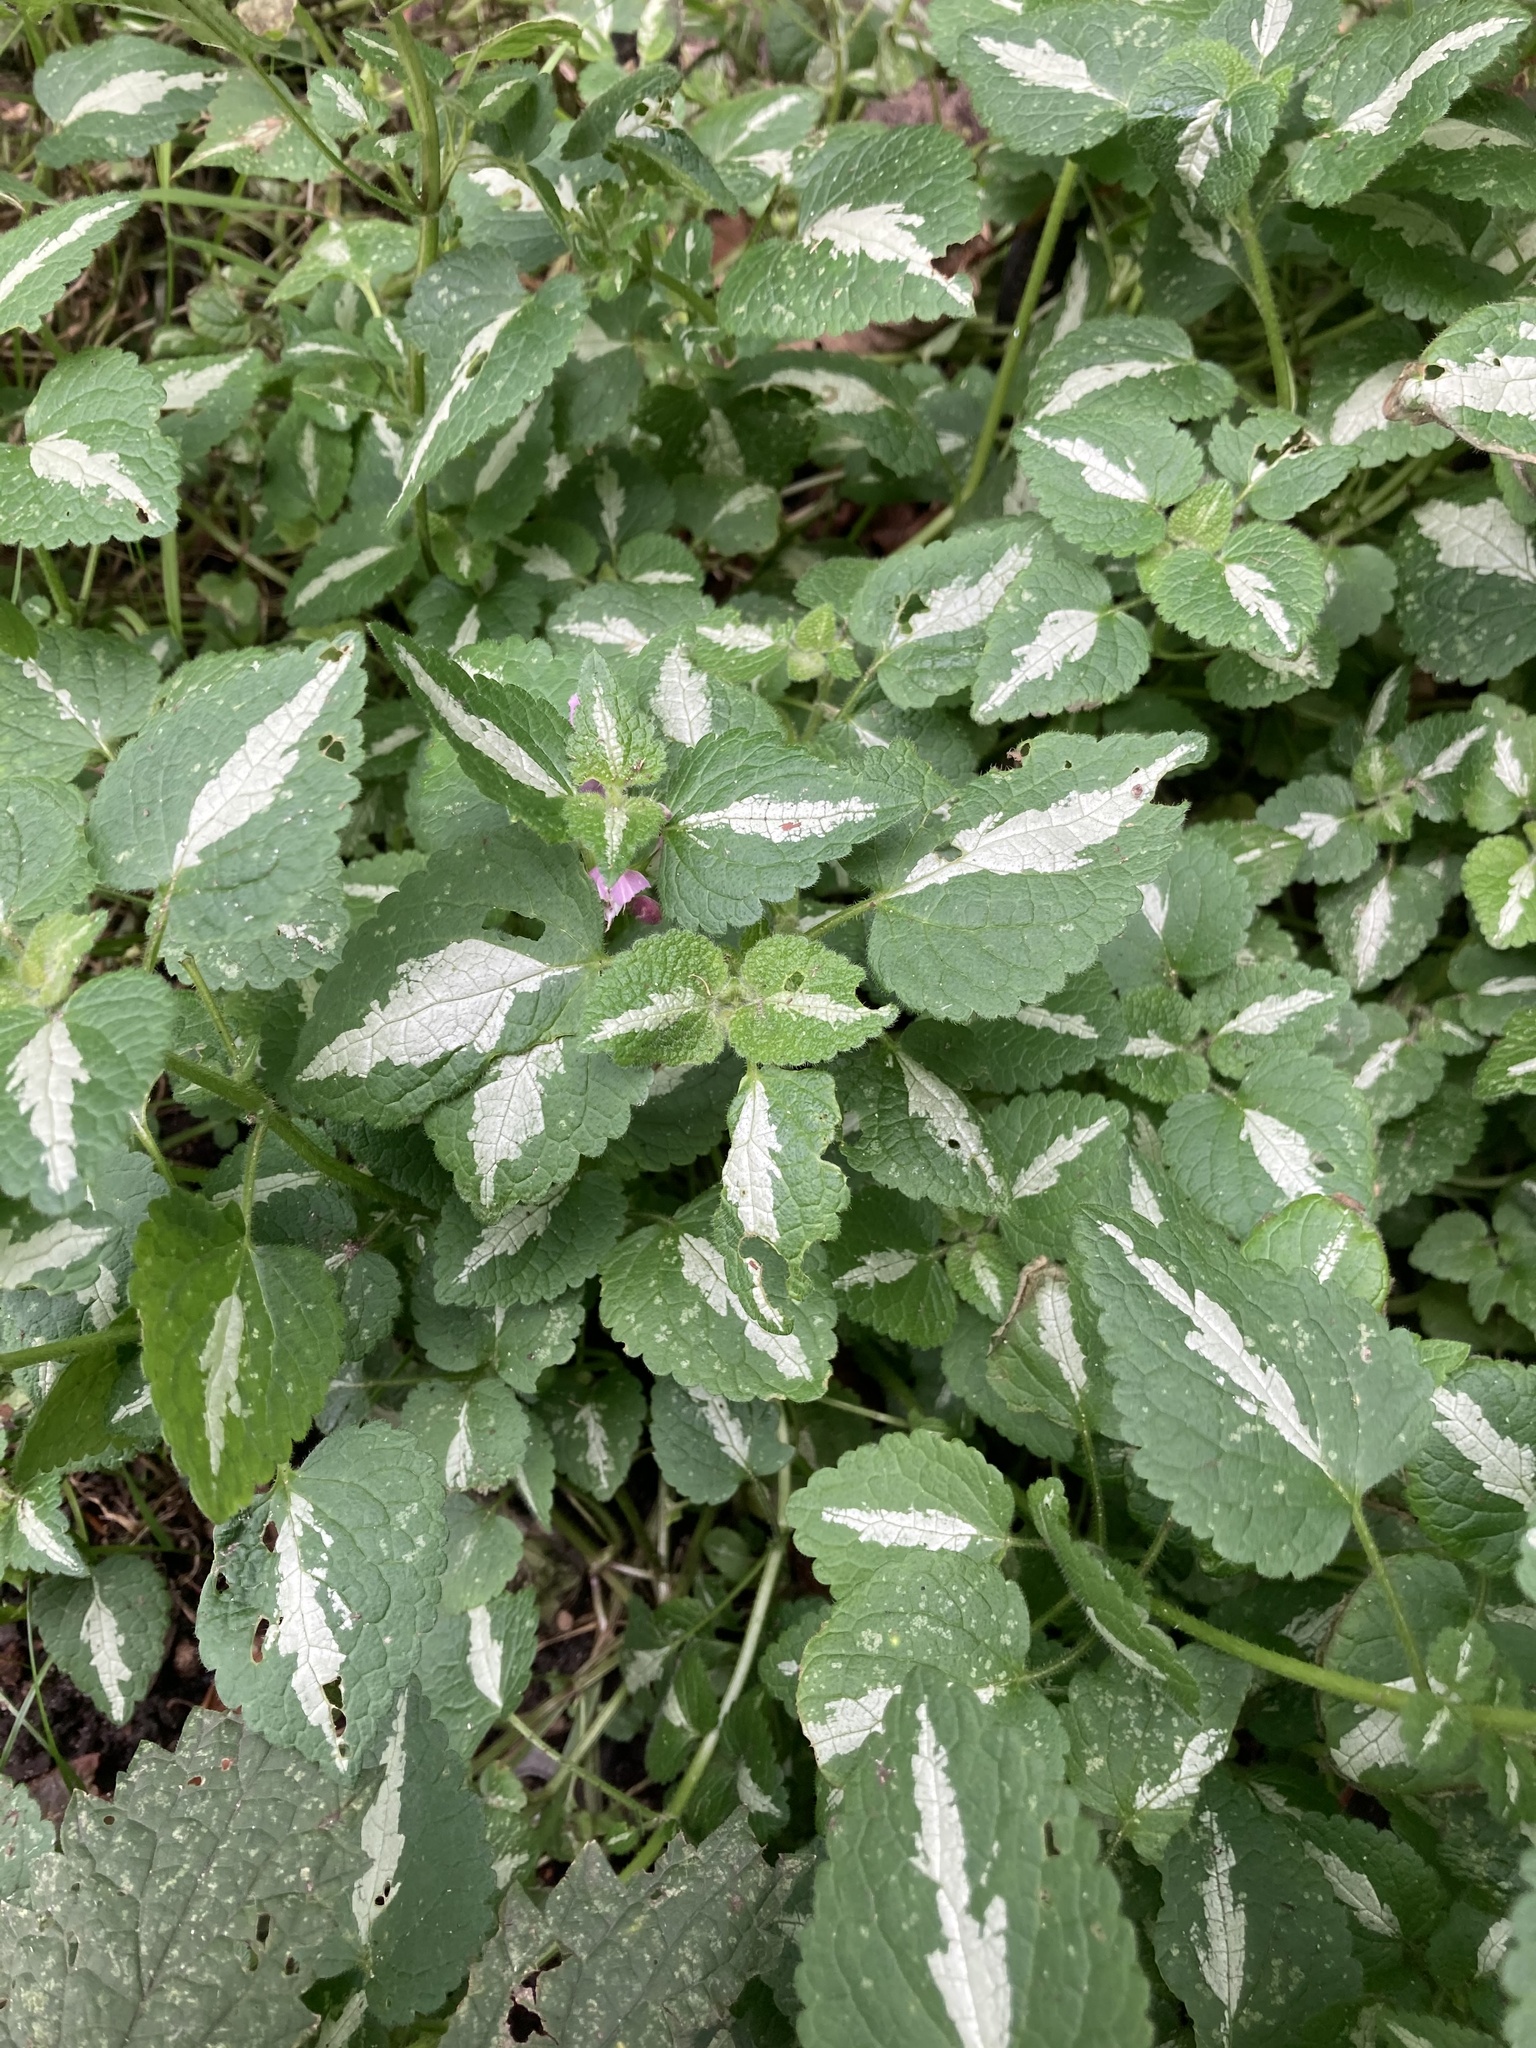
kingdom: Plantae
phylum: Tracheophyta
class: Magnoliopsida
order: Lamiales
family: Lamiaceae
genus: Lamium
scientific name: Lamium maculatum
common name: Spotted dead-nettle
